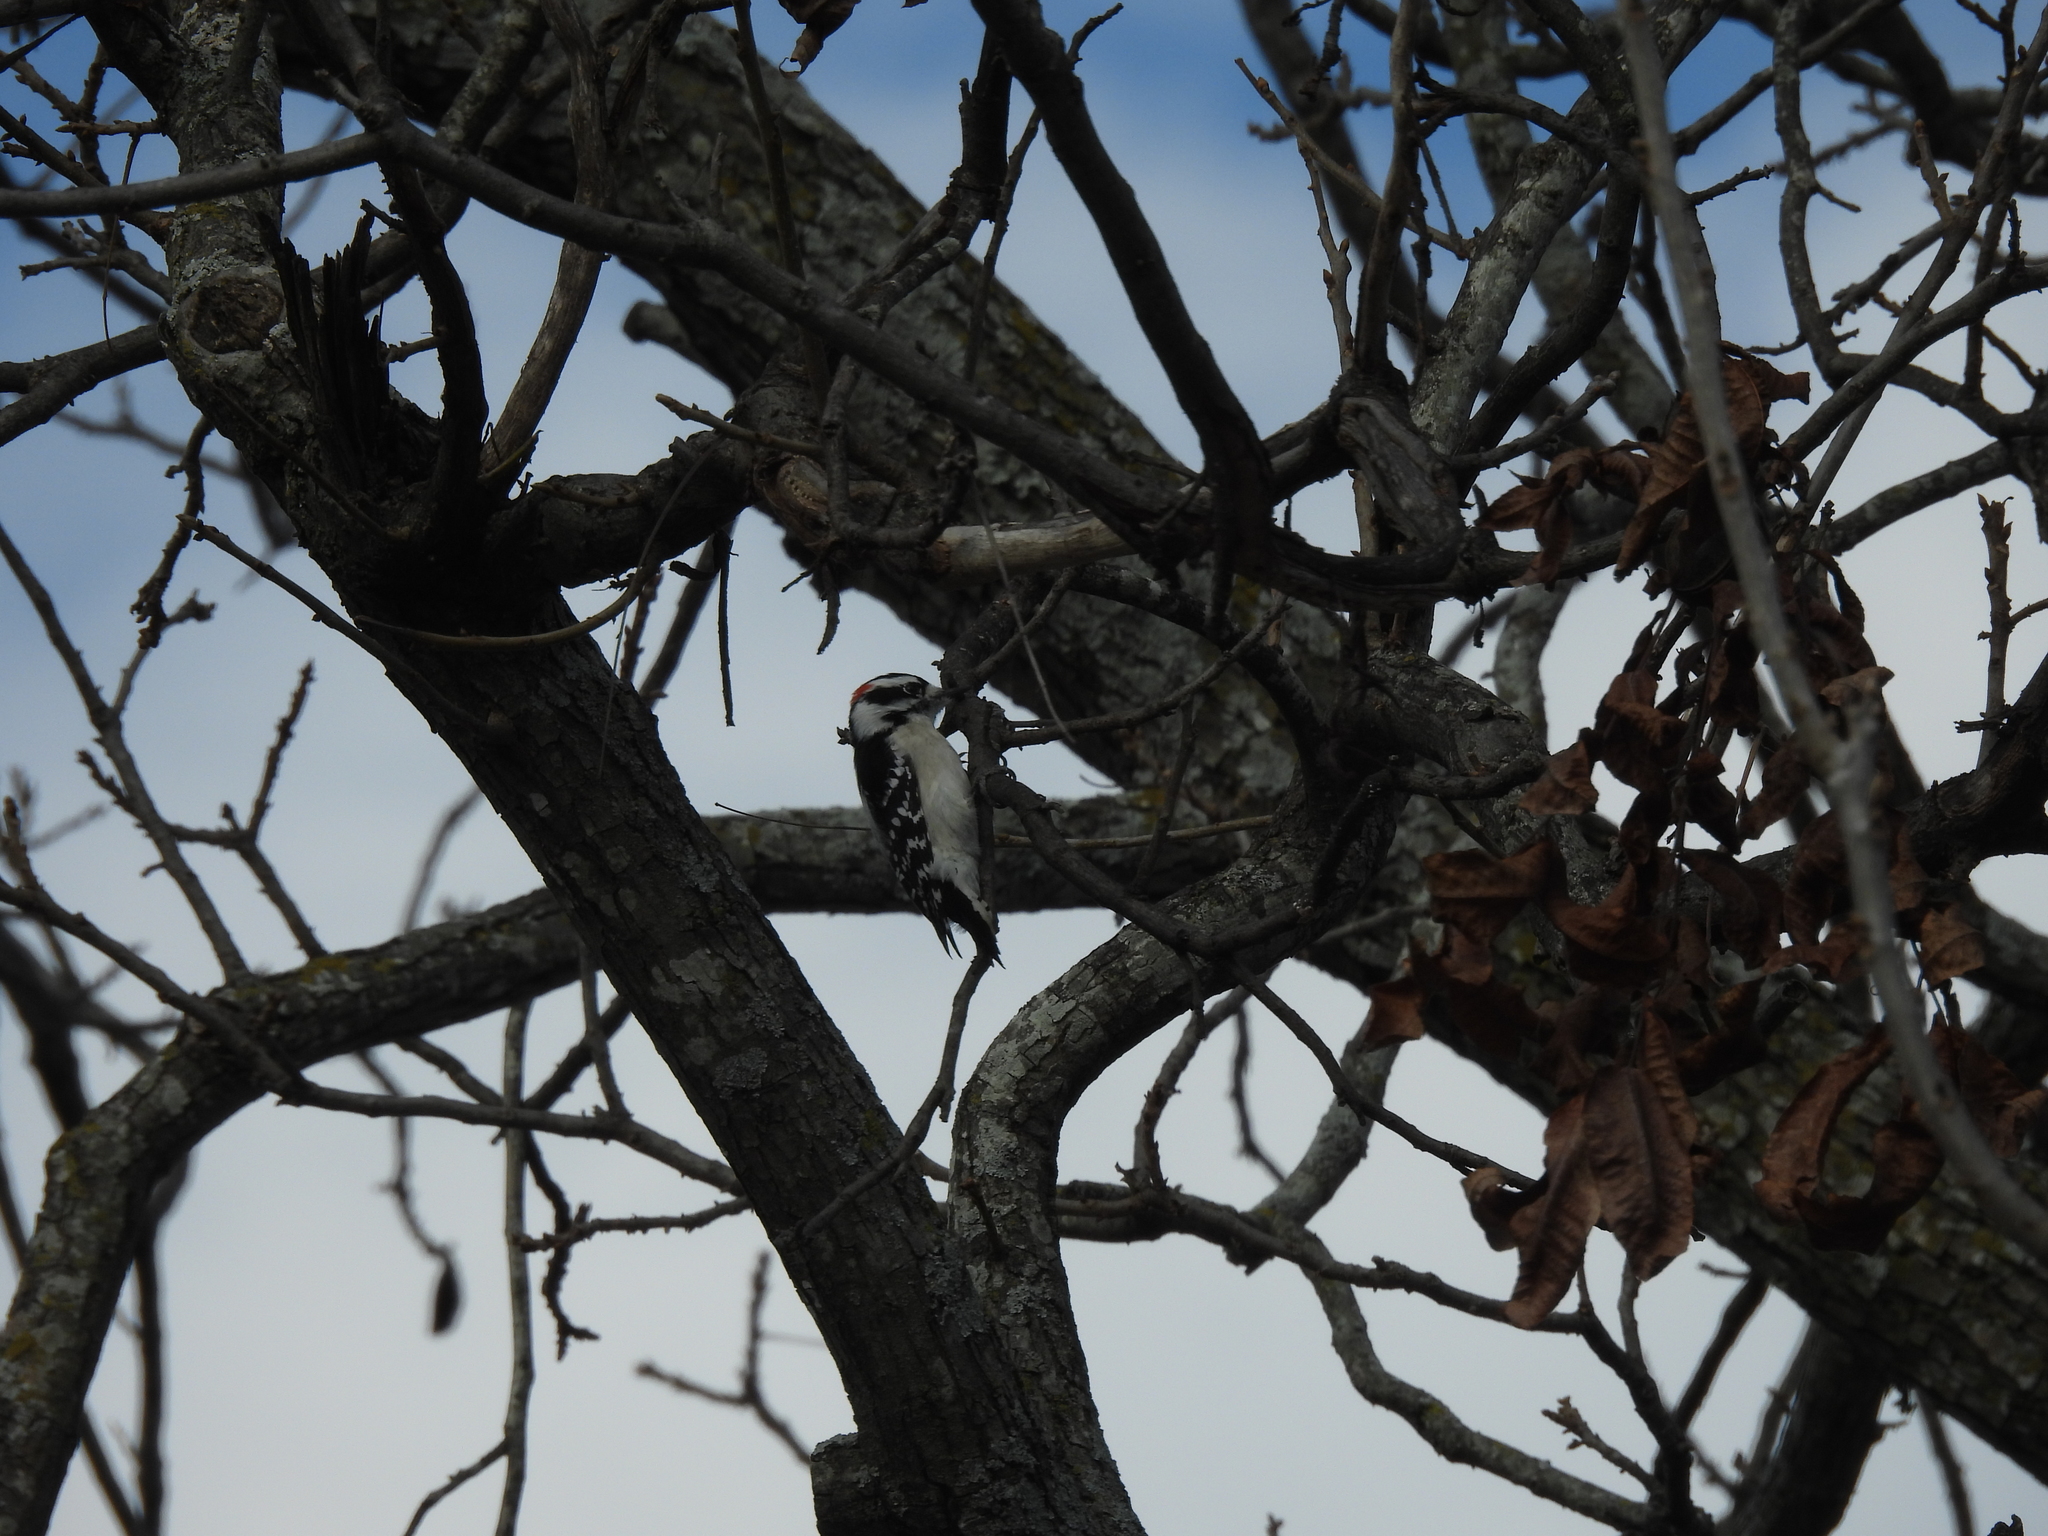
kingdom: Animalia
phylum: Chordata
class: Aves
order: Piciformes
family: Picidae
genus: Dryobates
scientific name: Dryobates pubescens
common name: Downy woodpecker
